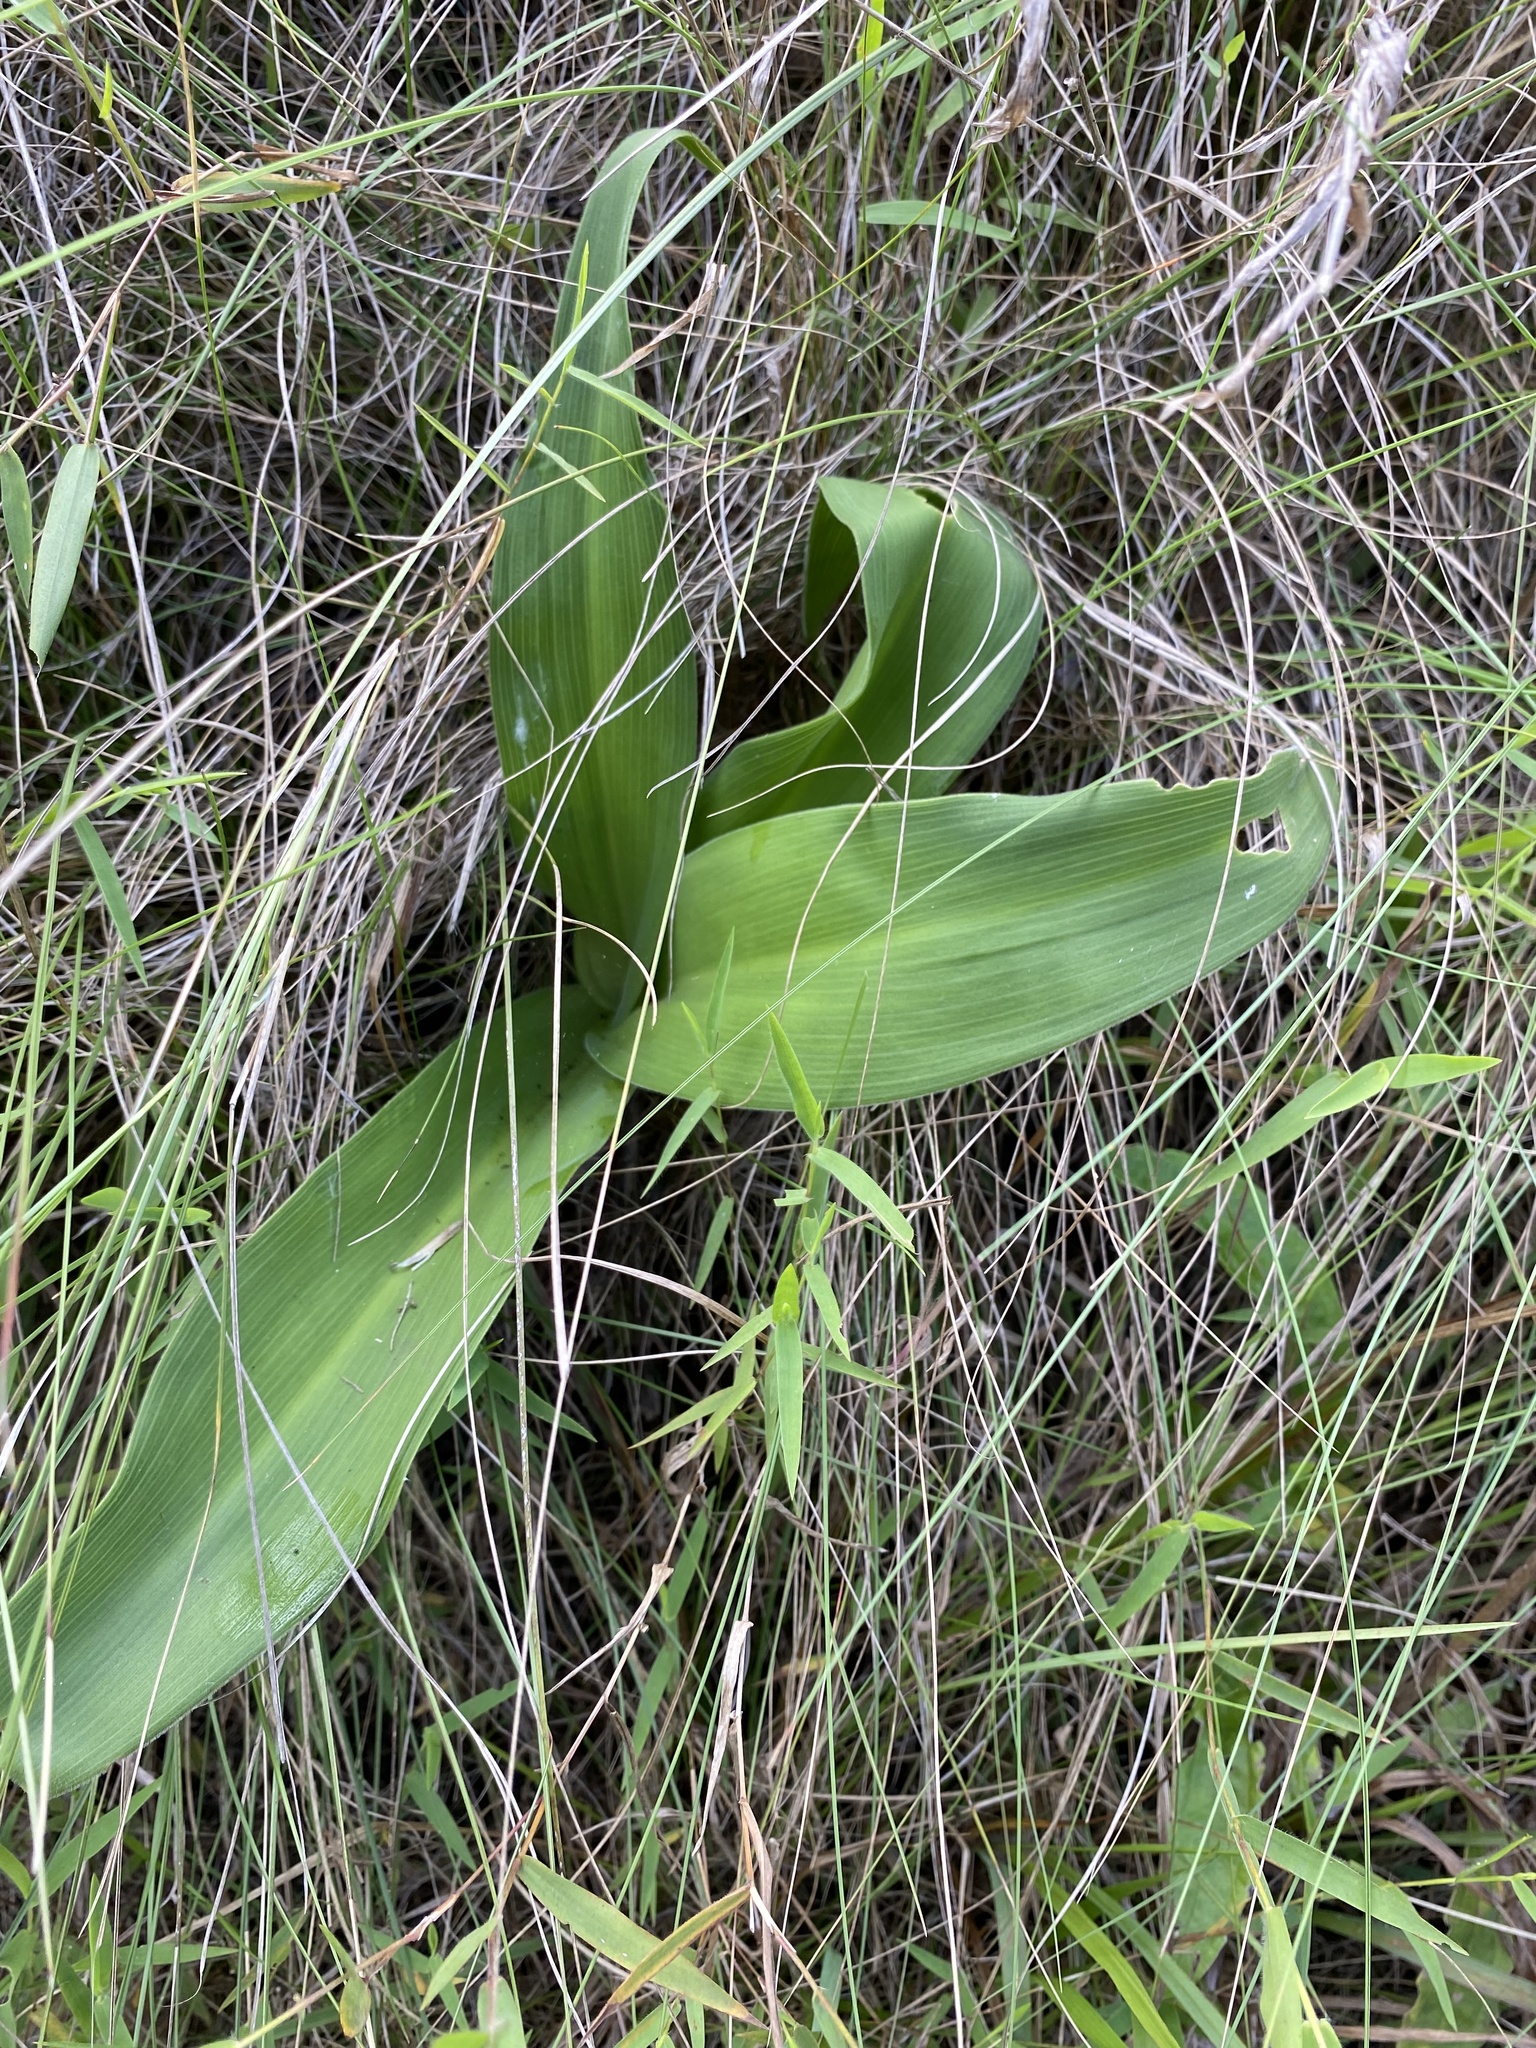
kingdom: Plantae
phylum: Tracheophyta
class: Liliopsida
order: Asparagales
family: Asparagaceae
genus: Schizocarphus
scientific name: Schizocarphus nervosus
